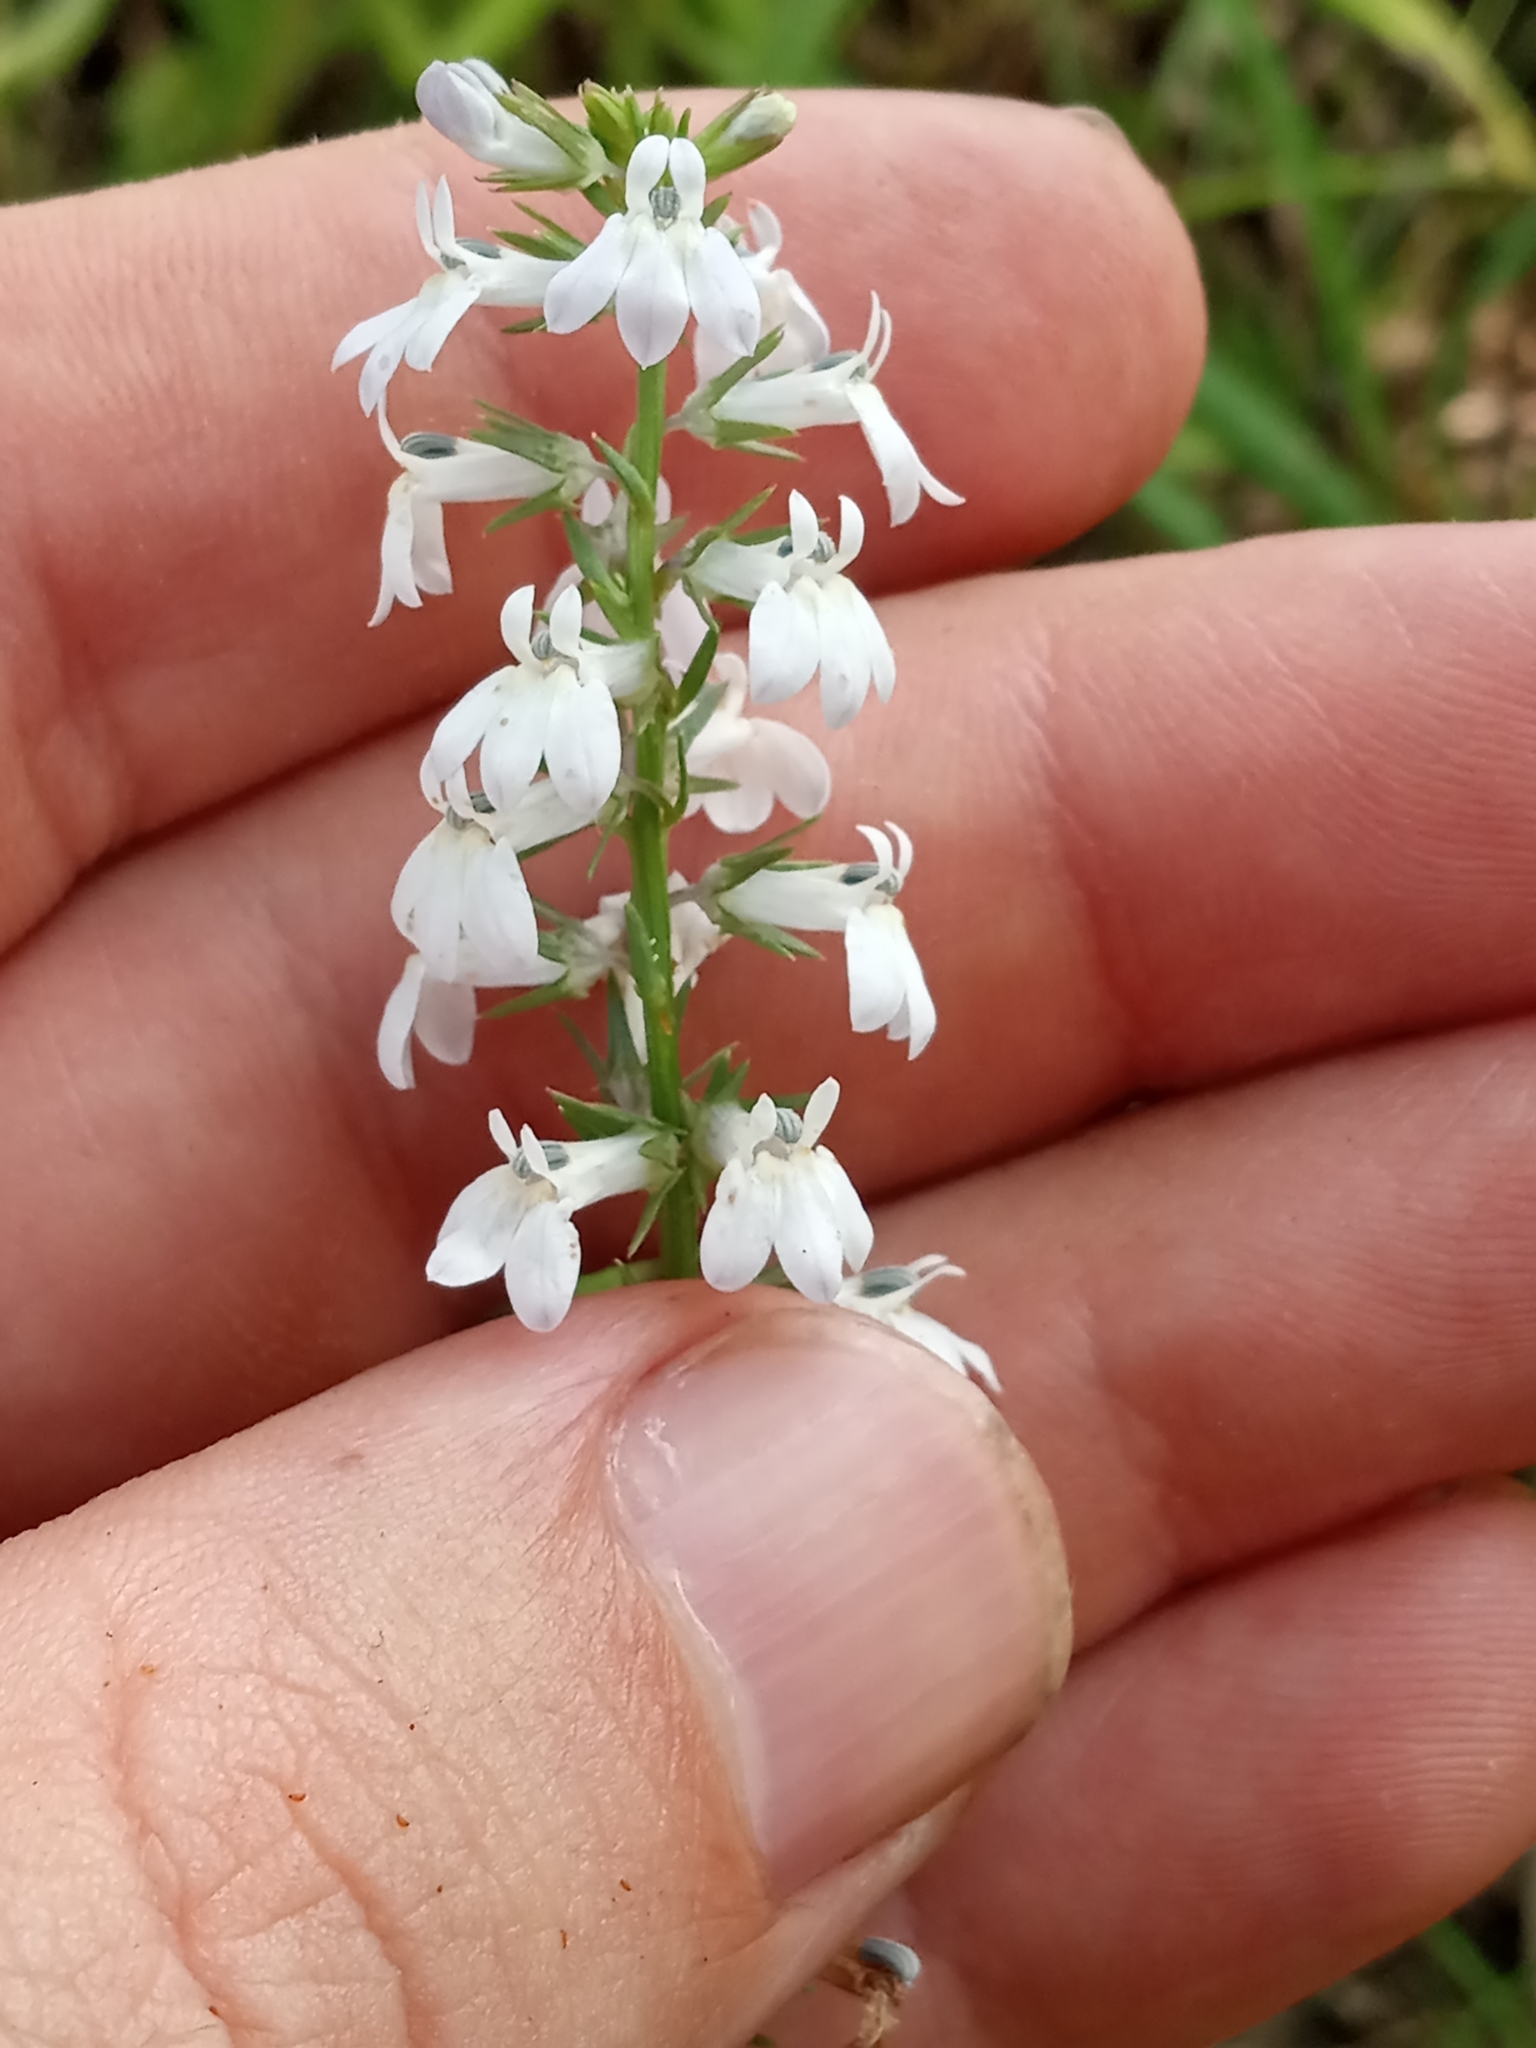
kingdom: Plantae
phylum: Tracheophyta
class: Magnoliopsida
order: Asterales
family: Campanulaceae
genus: Lobelia
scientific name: Lobelia spicata
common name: Pale-spike lobelia
